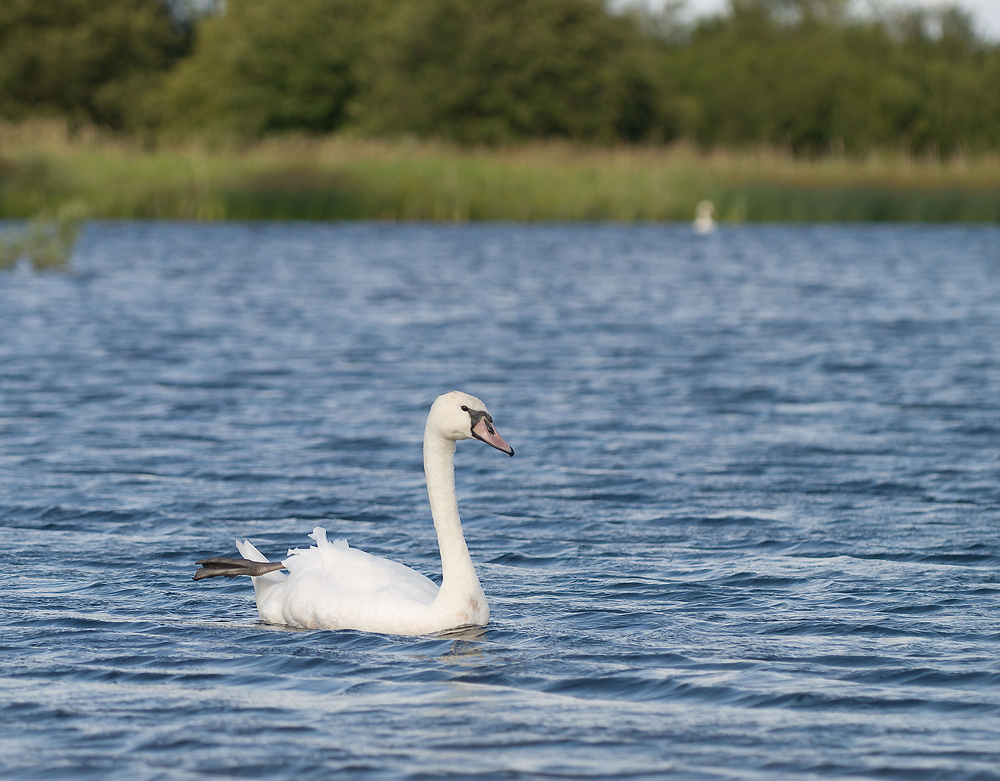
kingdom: Animalia
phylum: Chordata
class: Aves
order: Anseriformes
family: Anatidae
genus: Cygnus
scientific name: Cygnus olor
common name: Mute swan
